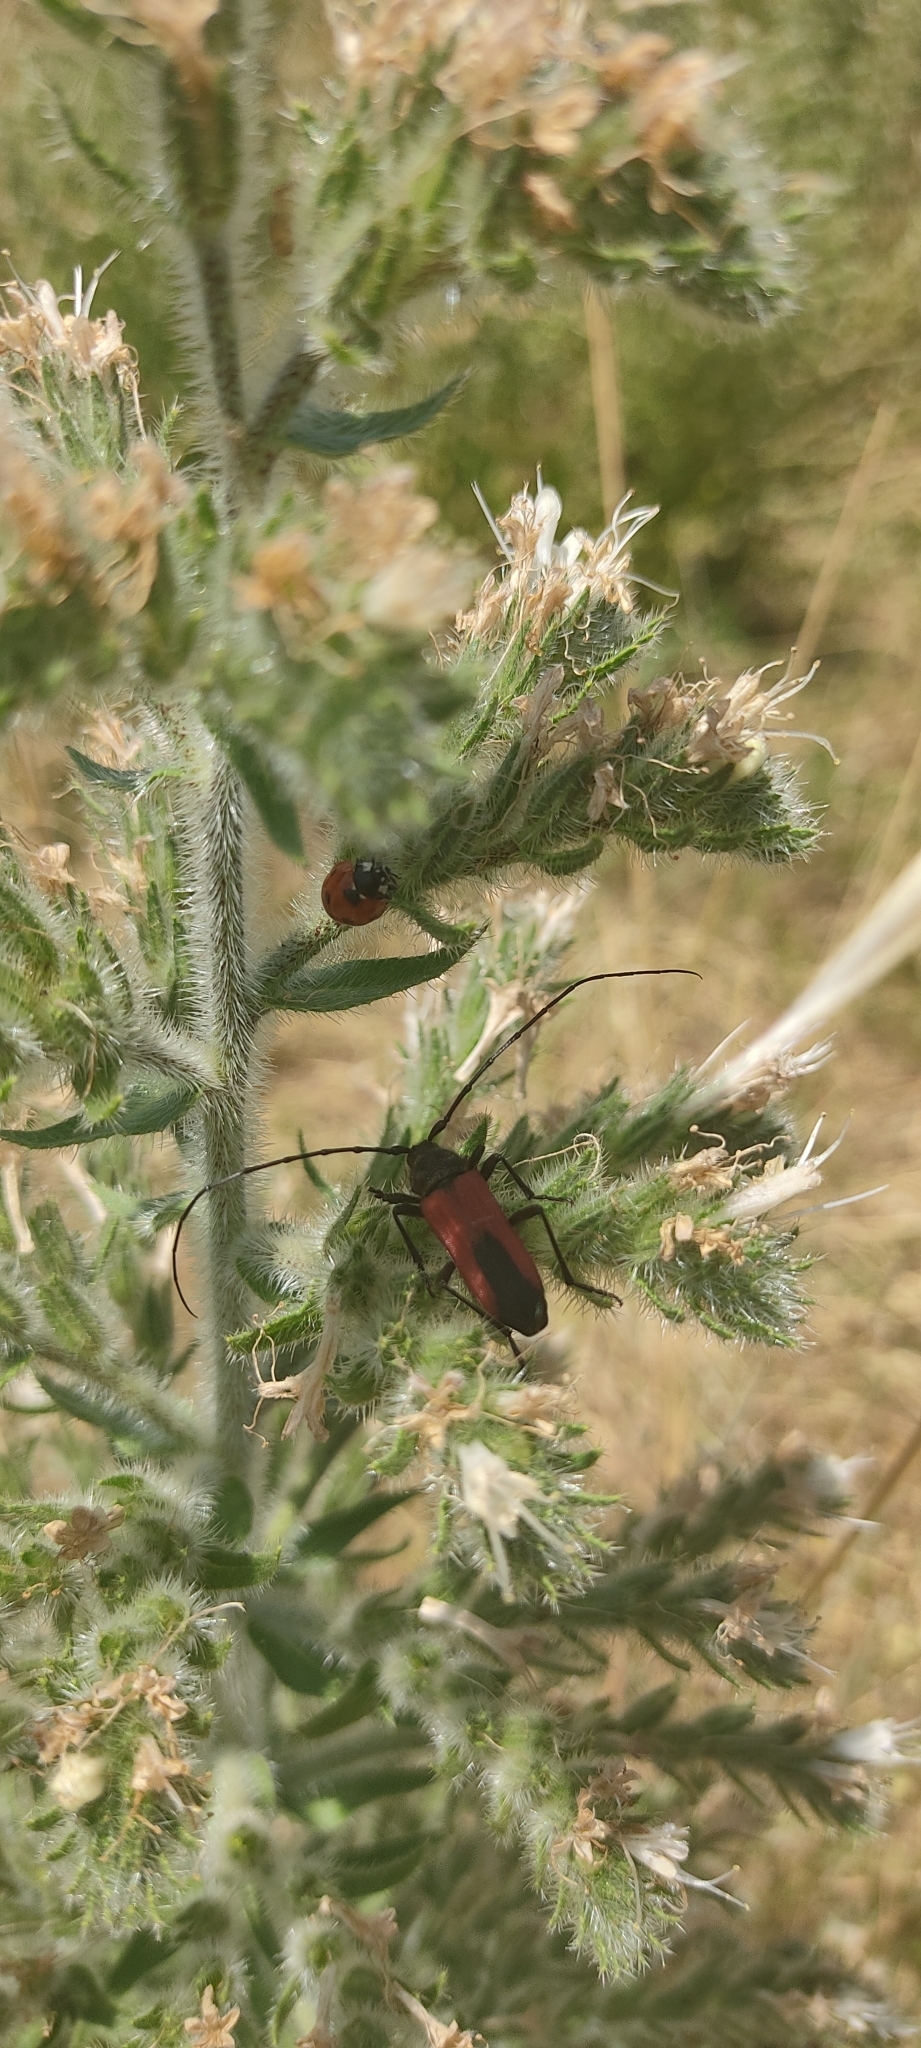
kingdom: Animalia
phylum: Arthropoda
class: Insecta
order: Coleoptera
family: Cerambycidae
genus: Purpuricenus
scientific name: Purpuricenus budensis
